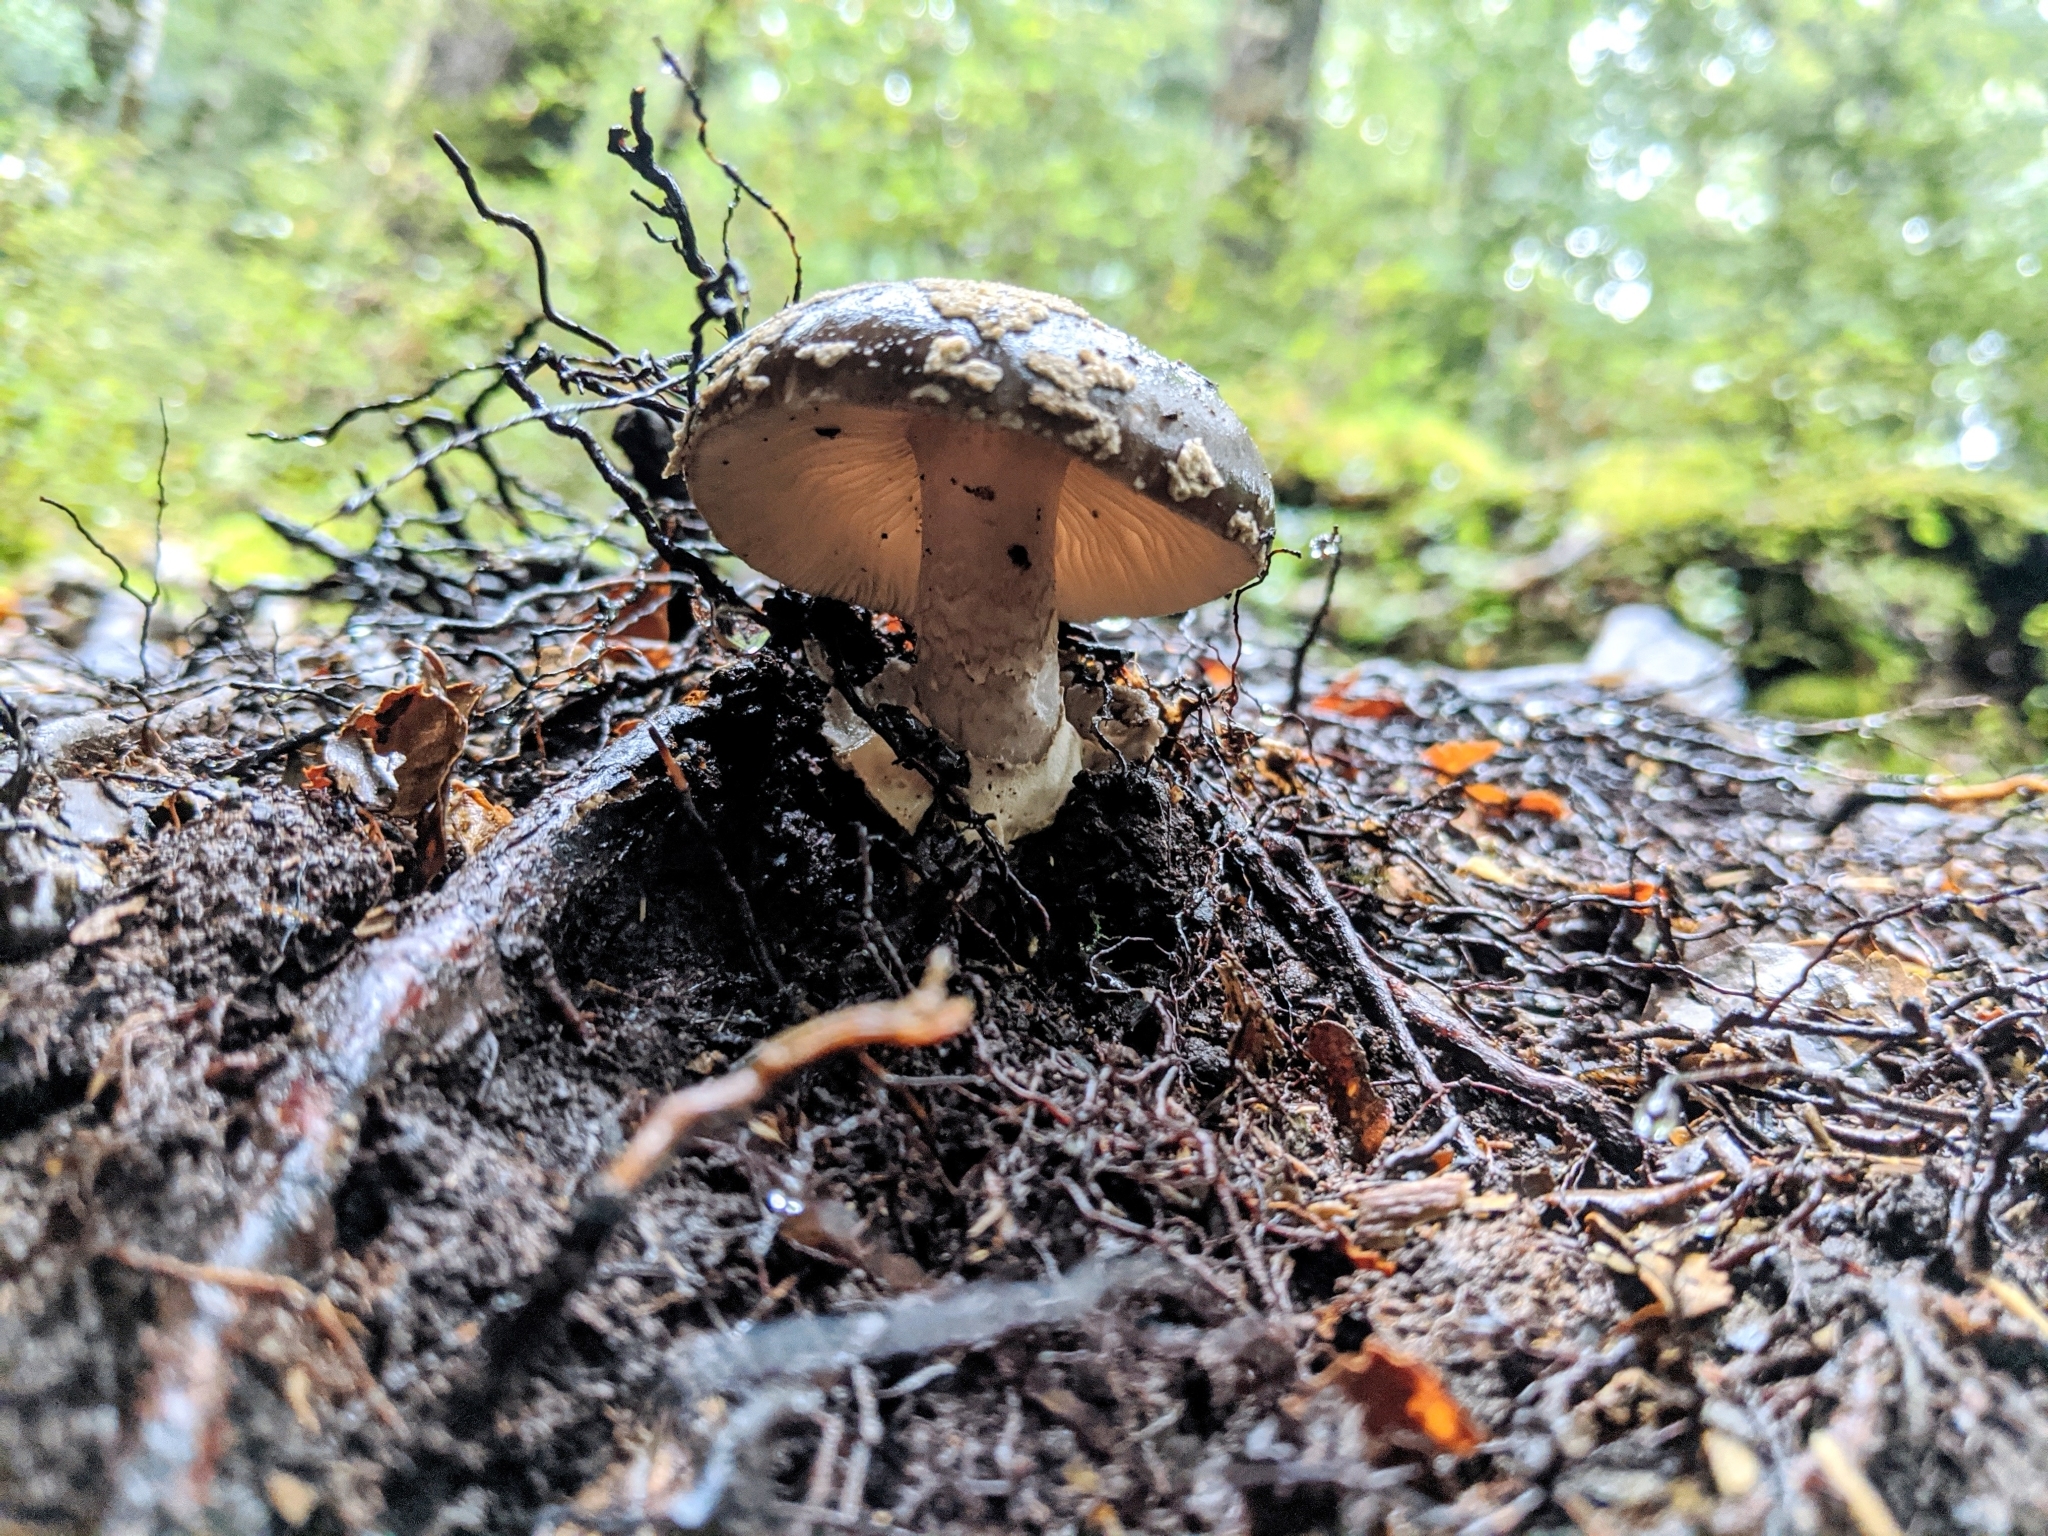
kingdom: Fungi
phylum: Basidiomycota
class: Agaricomycetes
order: Agaricales
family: Amanitaceae
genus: Amanita
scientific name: Amanita nothofagi
